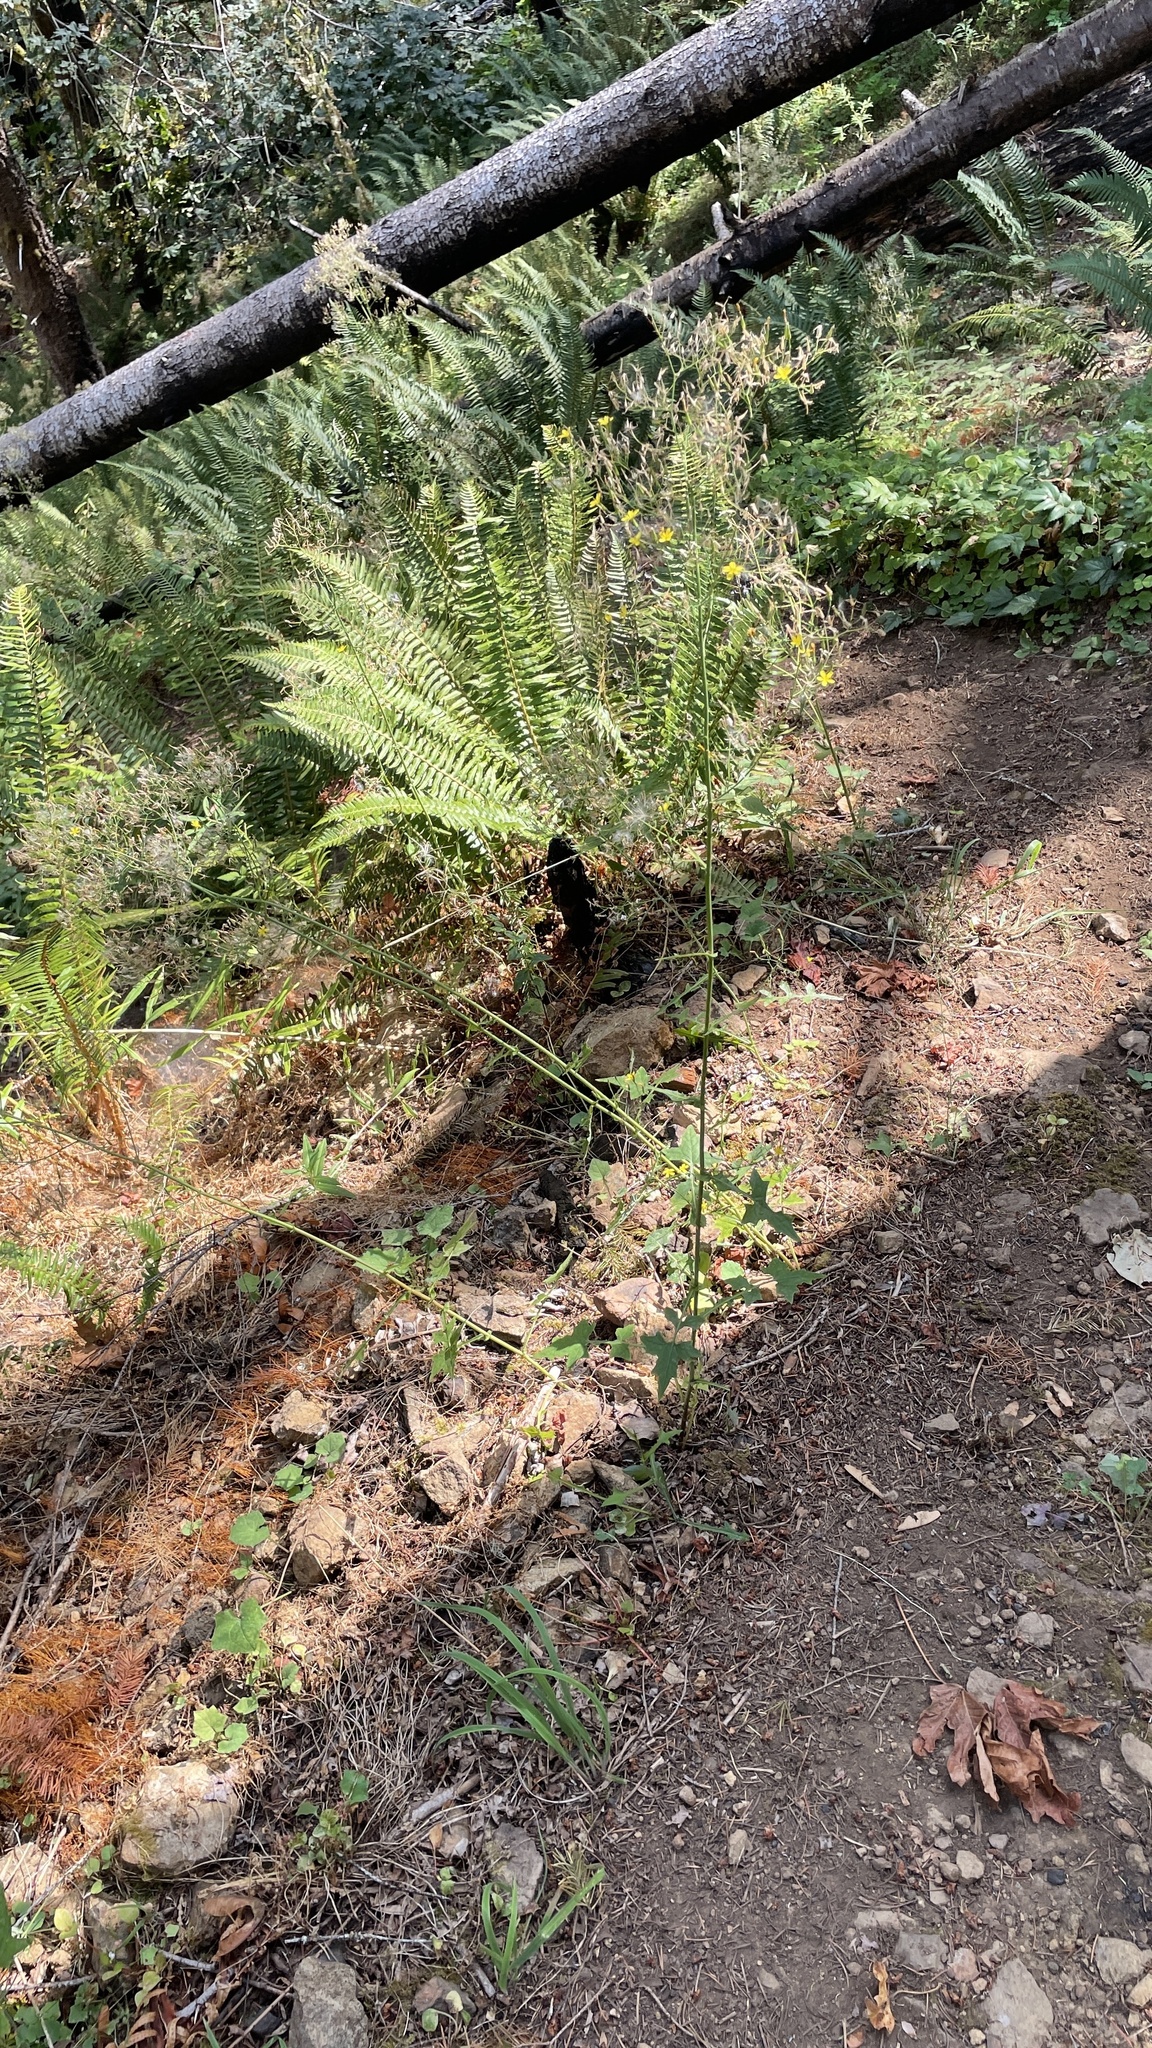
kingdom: Plantae
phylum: Tracheophyta
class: Magnoliopsida
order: Asterales
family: Asteraceae
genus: Mycelis
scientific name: Mycelis muralis
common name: Wall lettuce
